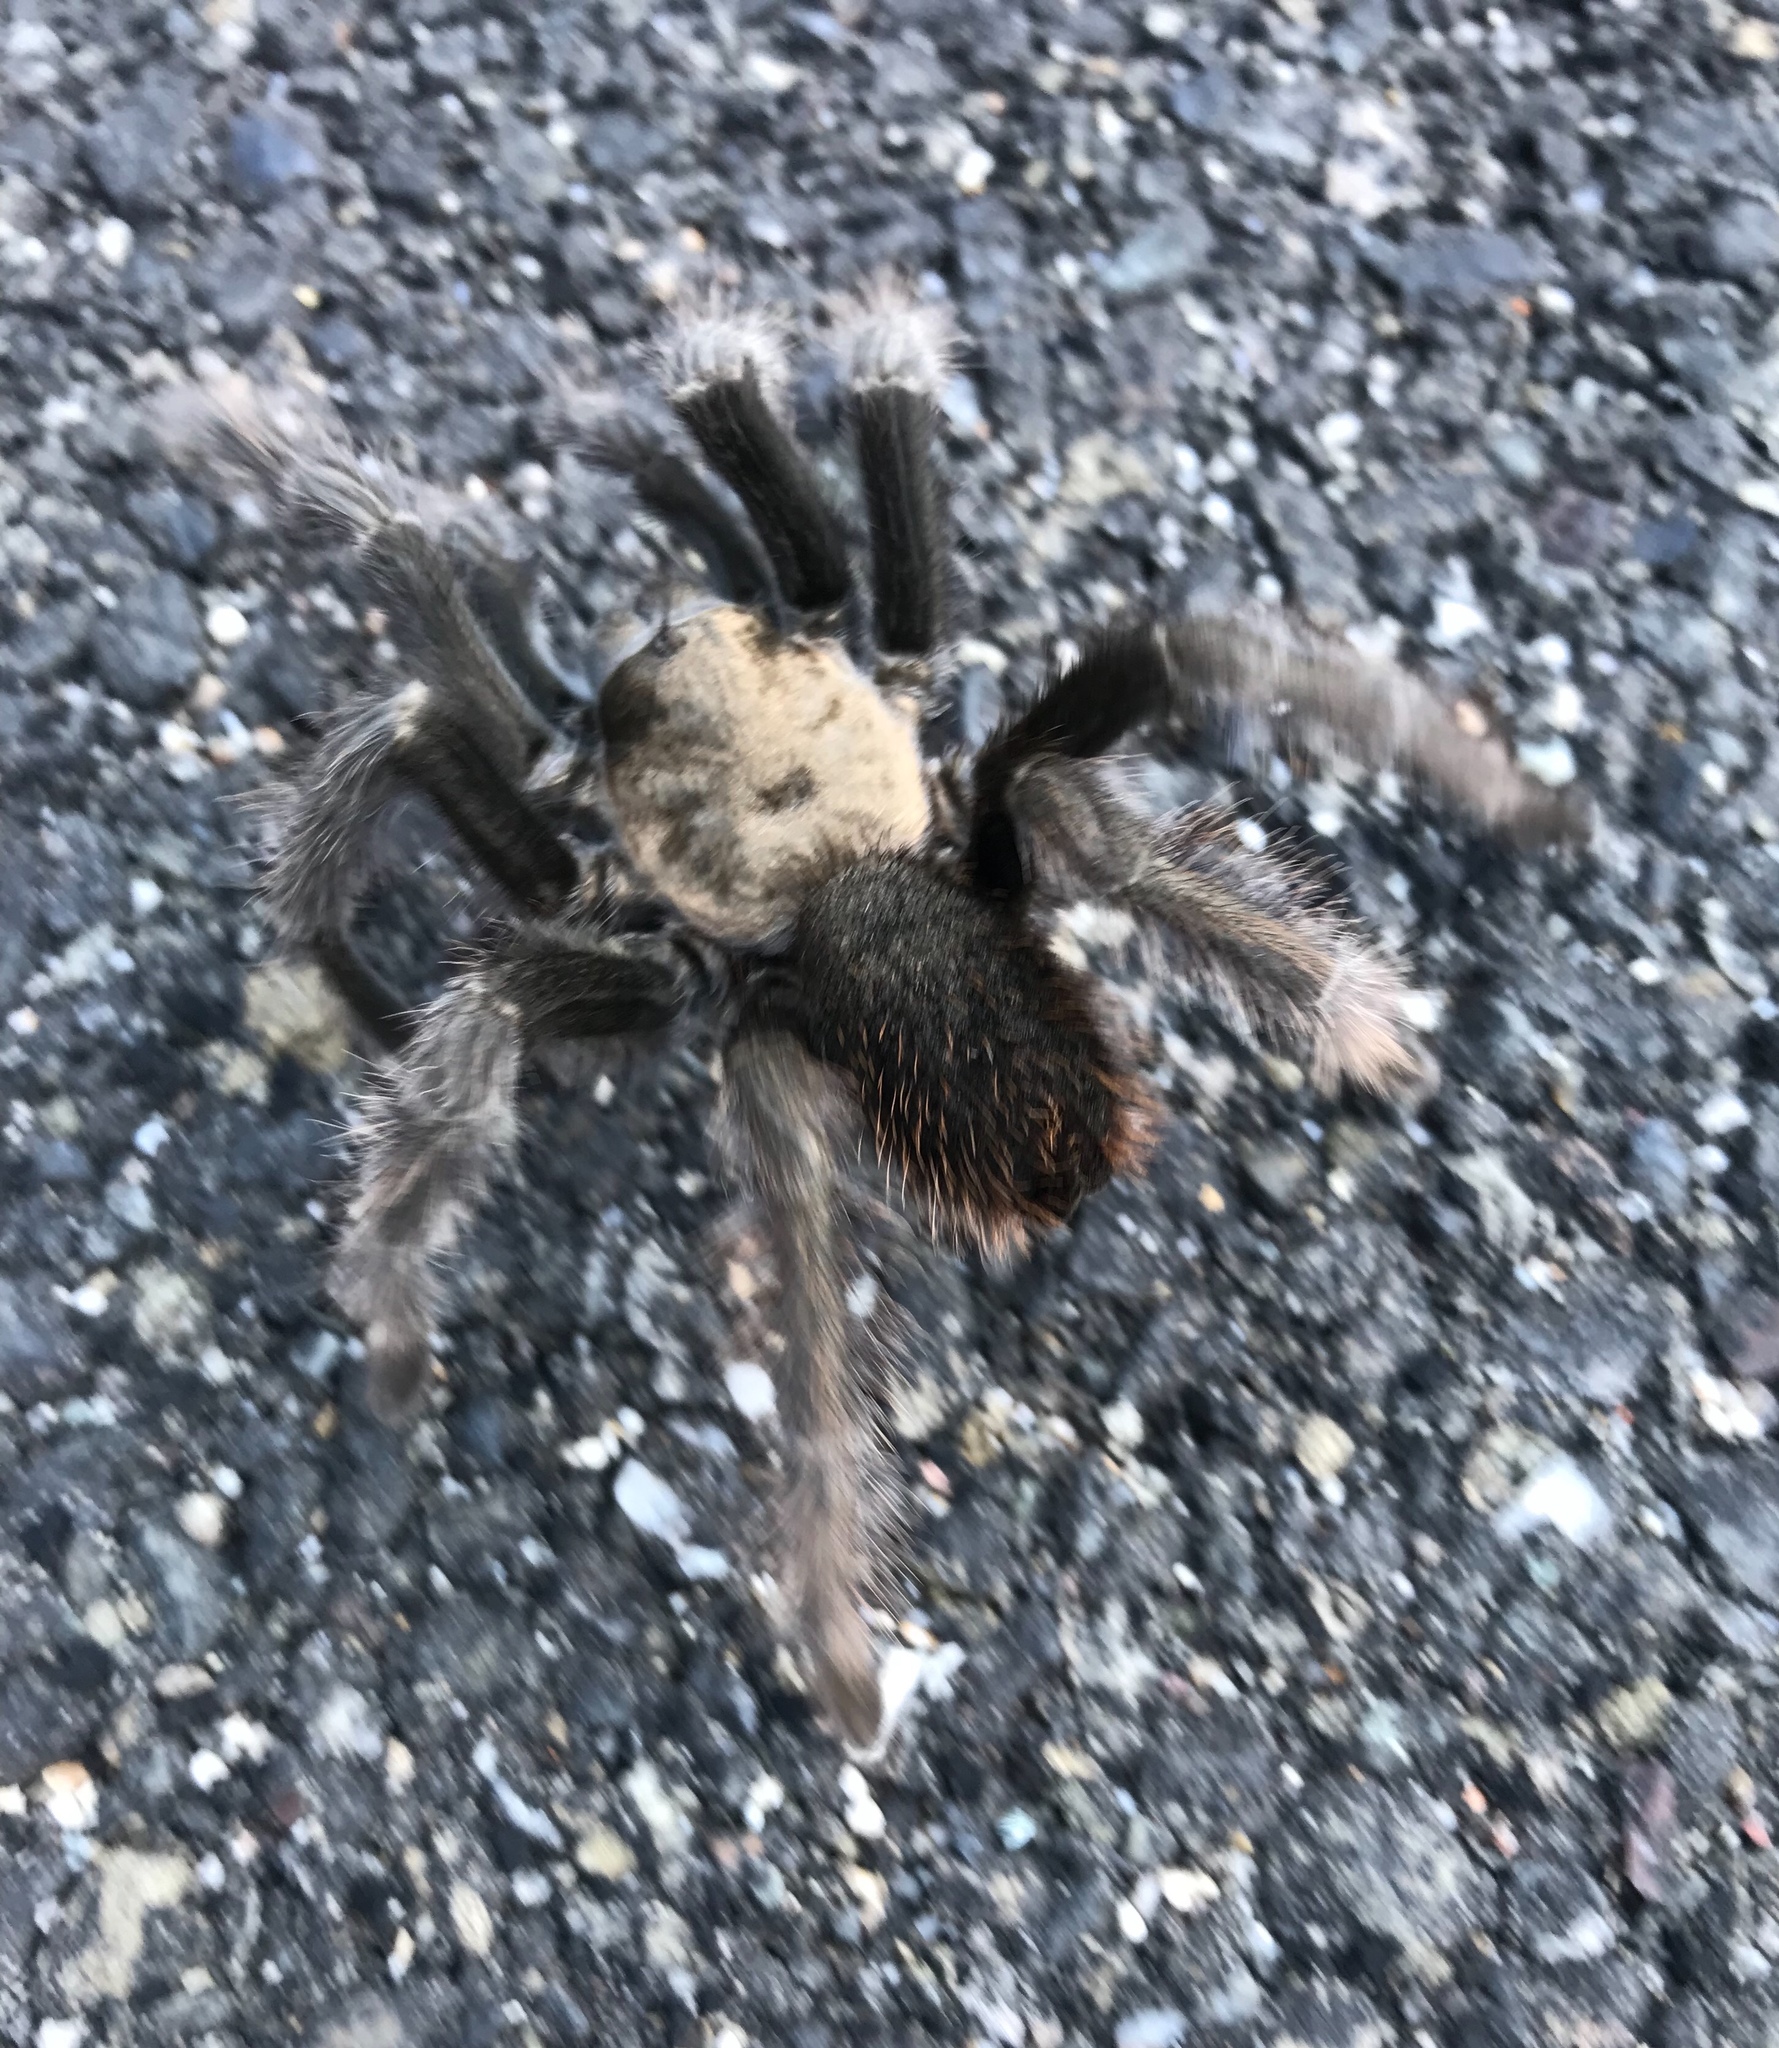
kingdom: Animalia
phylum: Arthropoda
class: Arachnida
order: Araneae
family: Theraphosidae
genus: Aphonopelma
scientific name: Aphonopelma iodius
